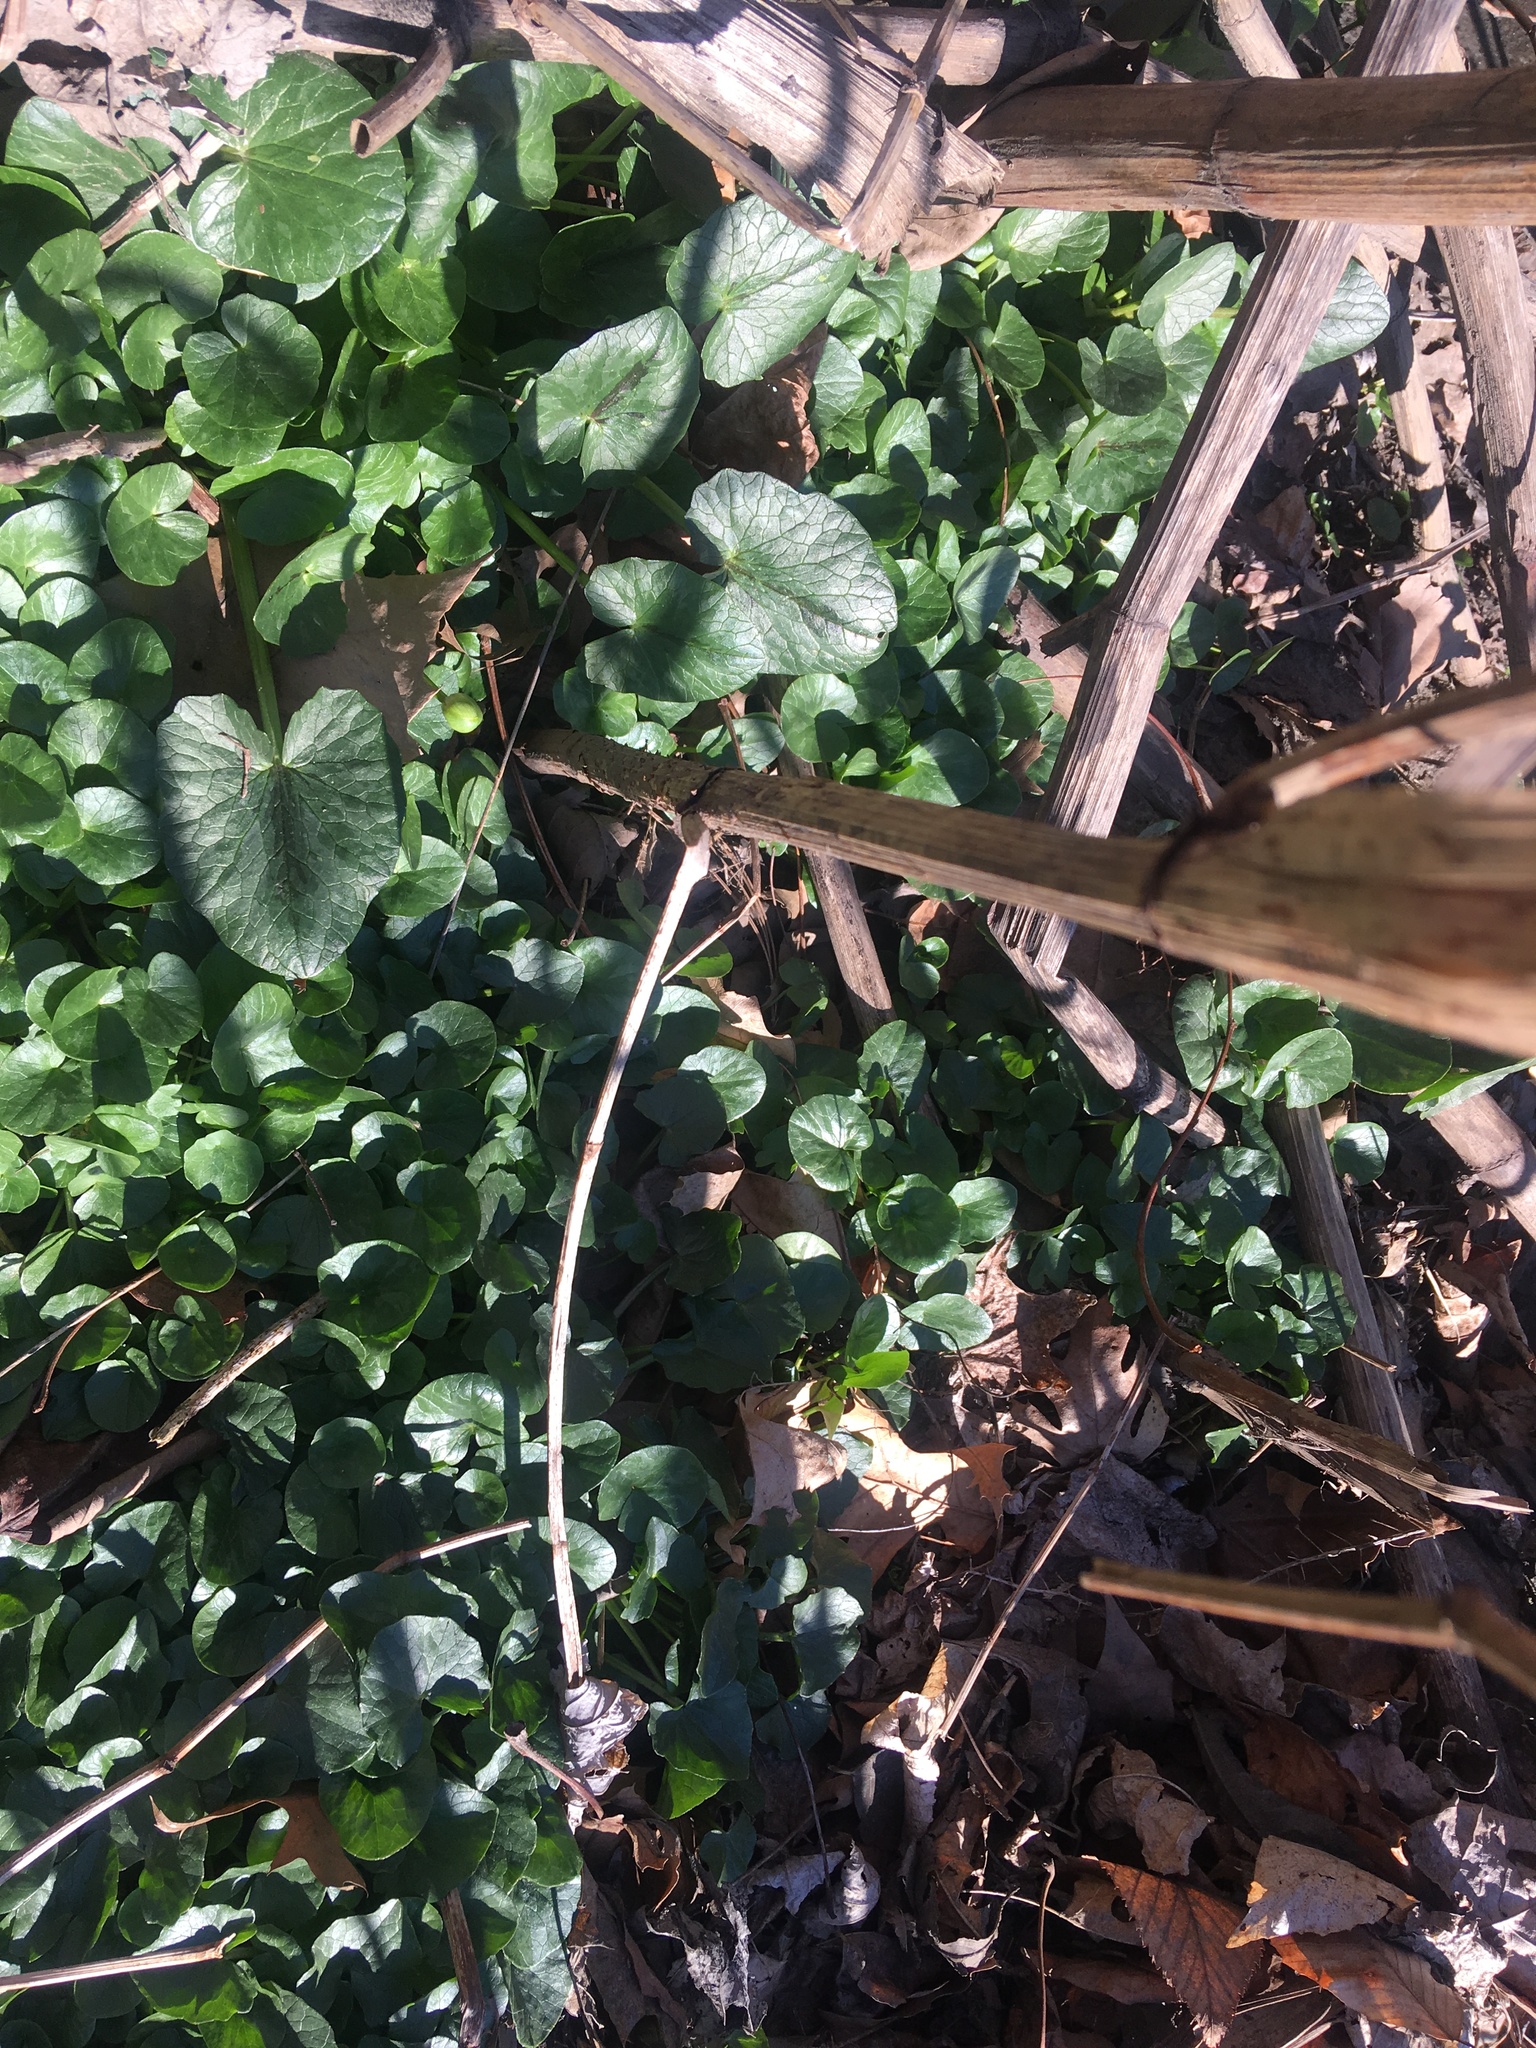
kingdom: Plantae
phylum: Tracheophyta
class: Magnoliopsida
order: Ranunculales
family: Ranunculaceae
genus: Ficaria
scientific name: Ficaria verna
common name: Lesser celandine
